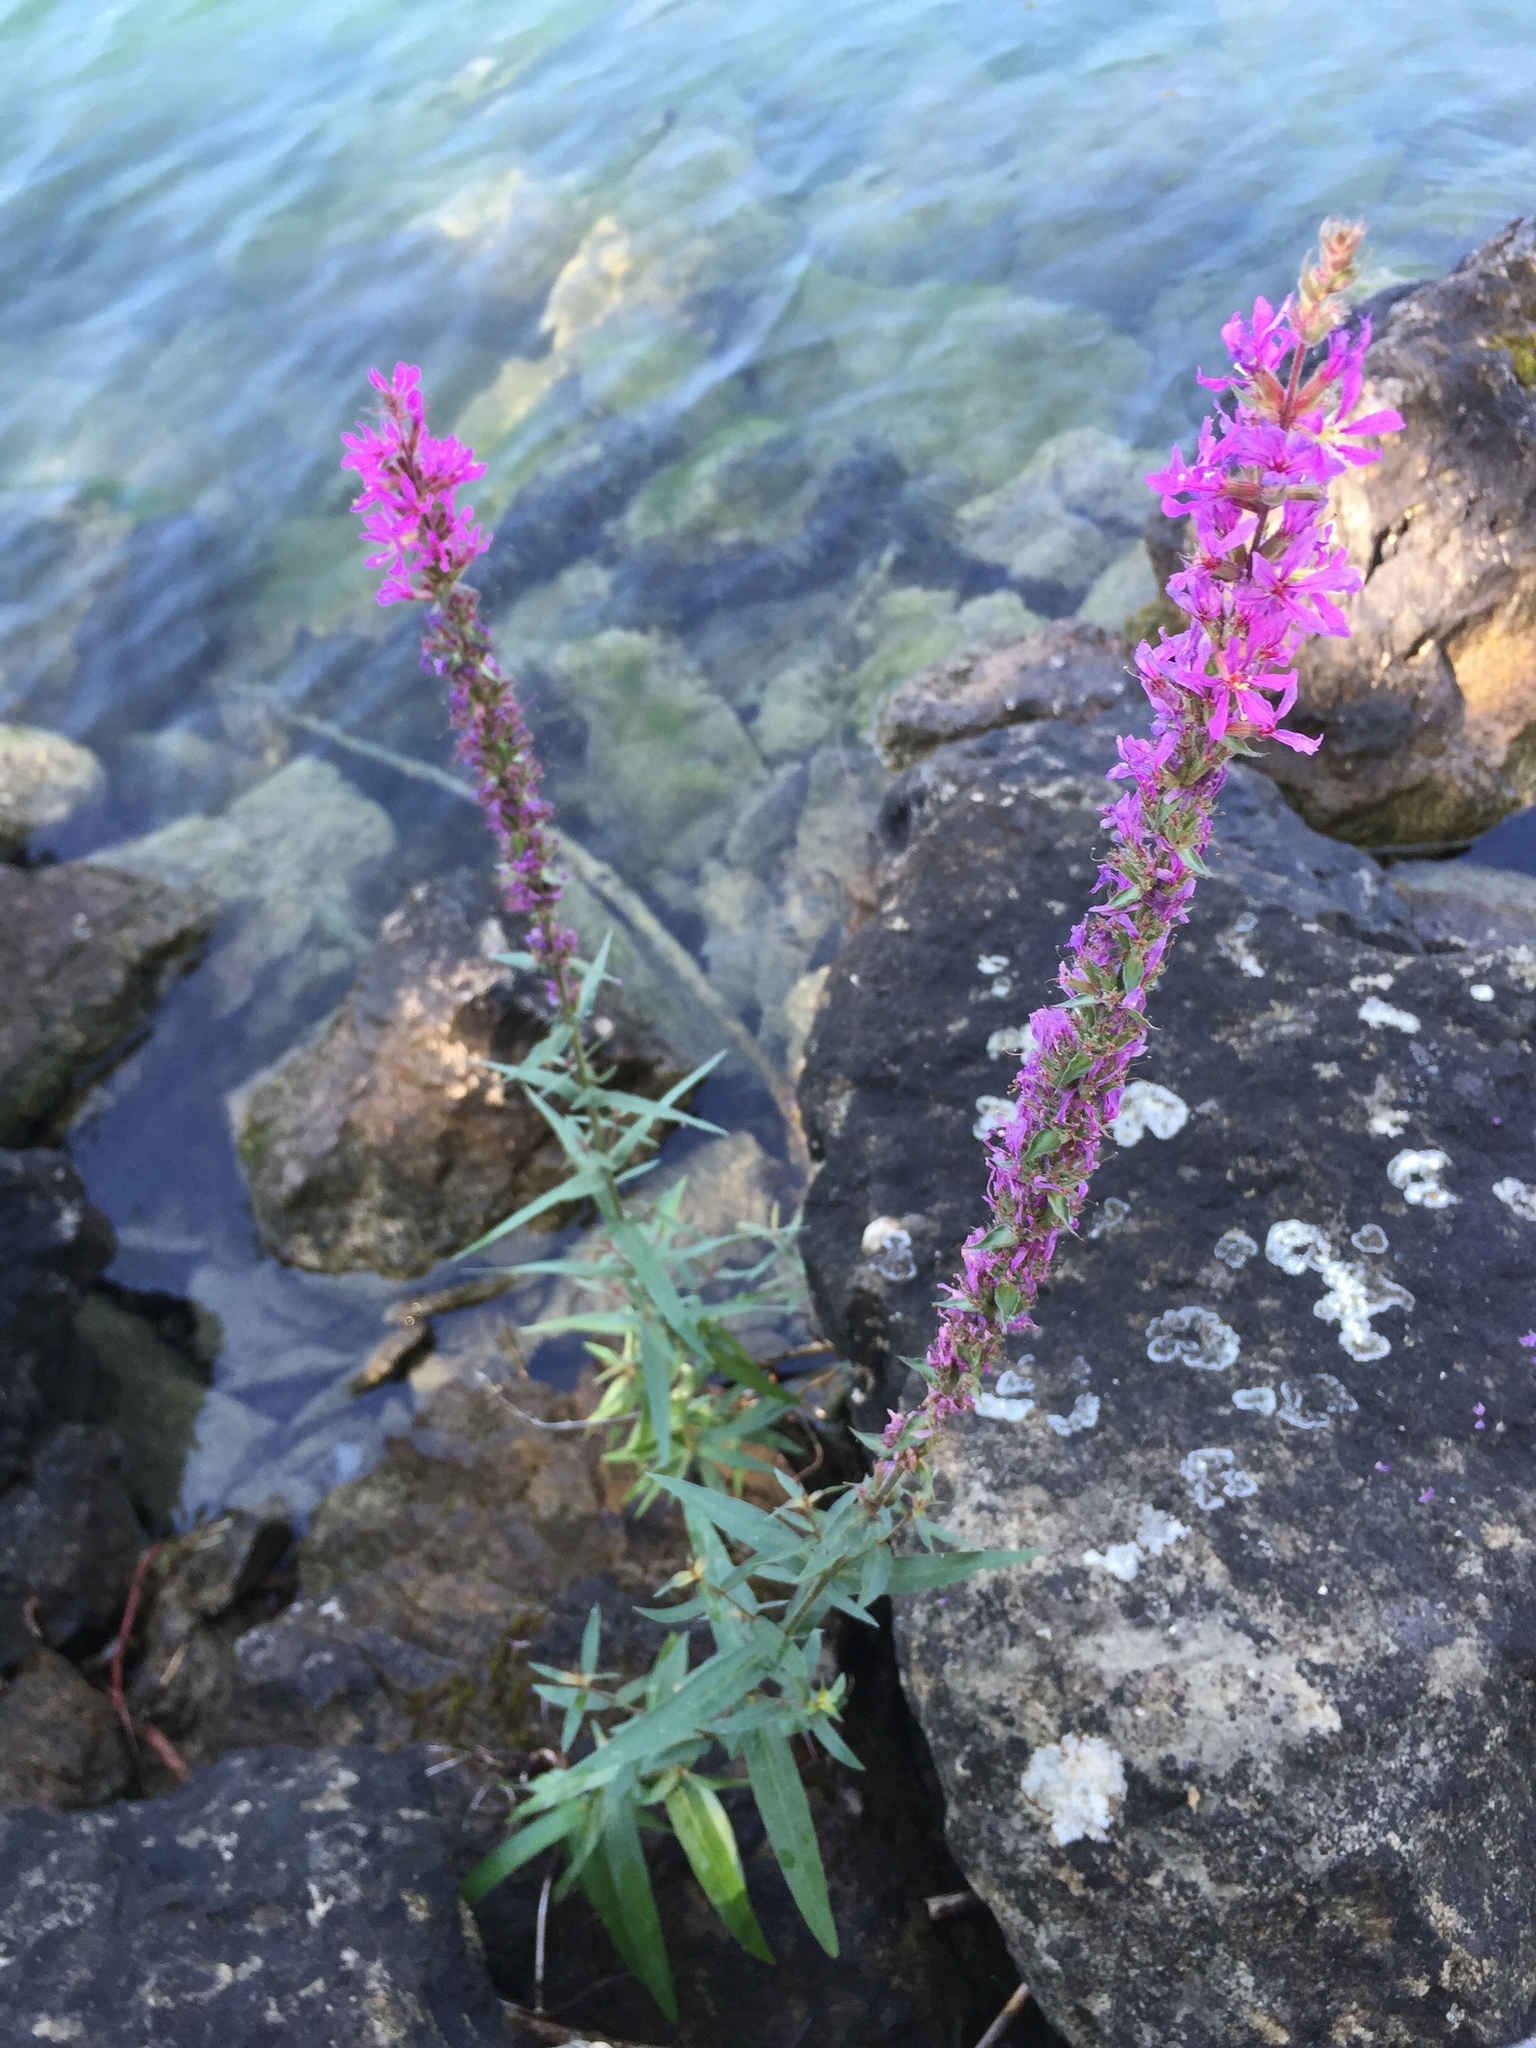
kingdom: Plantae
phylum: Tracheophyta
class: Magnoliopsida
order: Myrtales
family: Lythraceae
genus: Lythrum
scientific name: Lythrum salicaria
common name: Purple loosestrife
